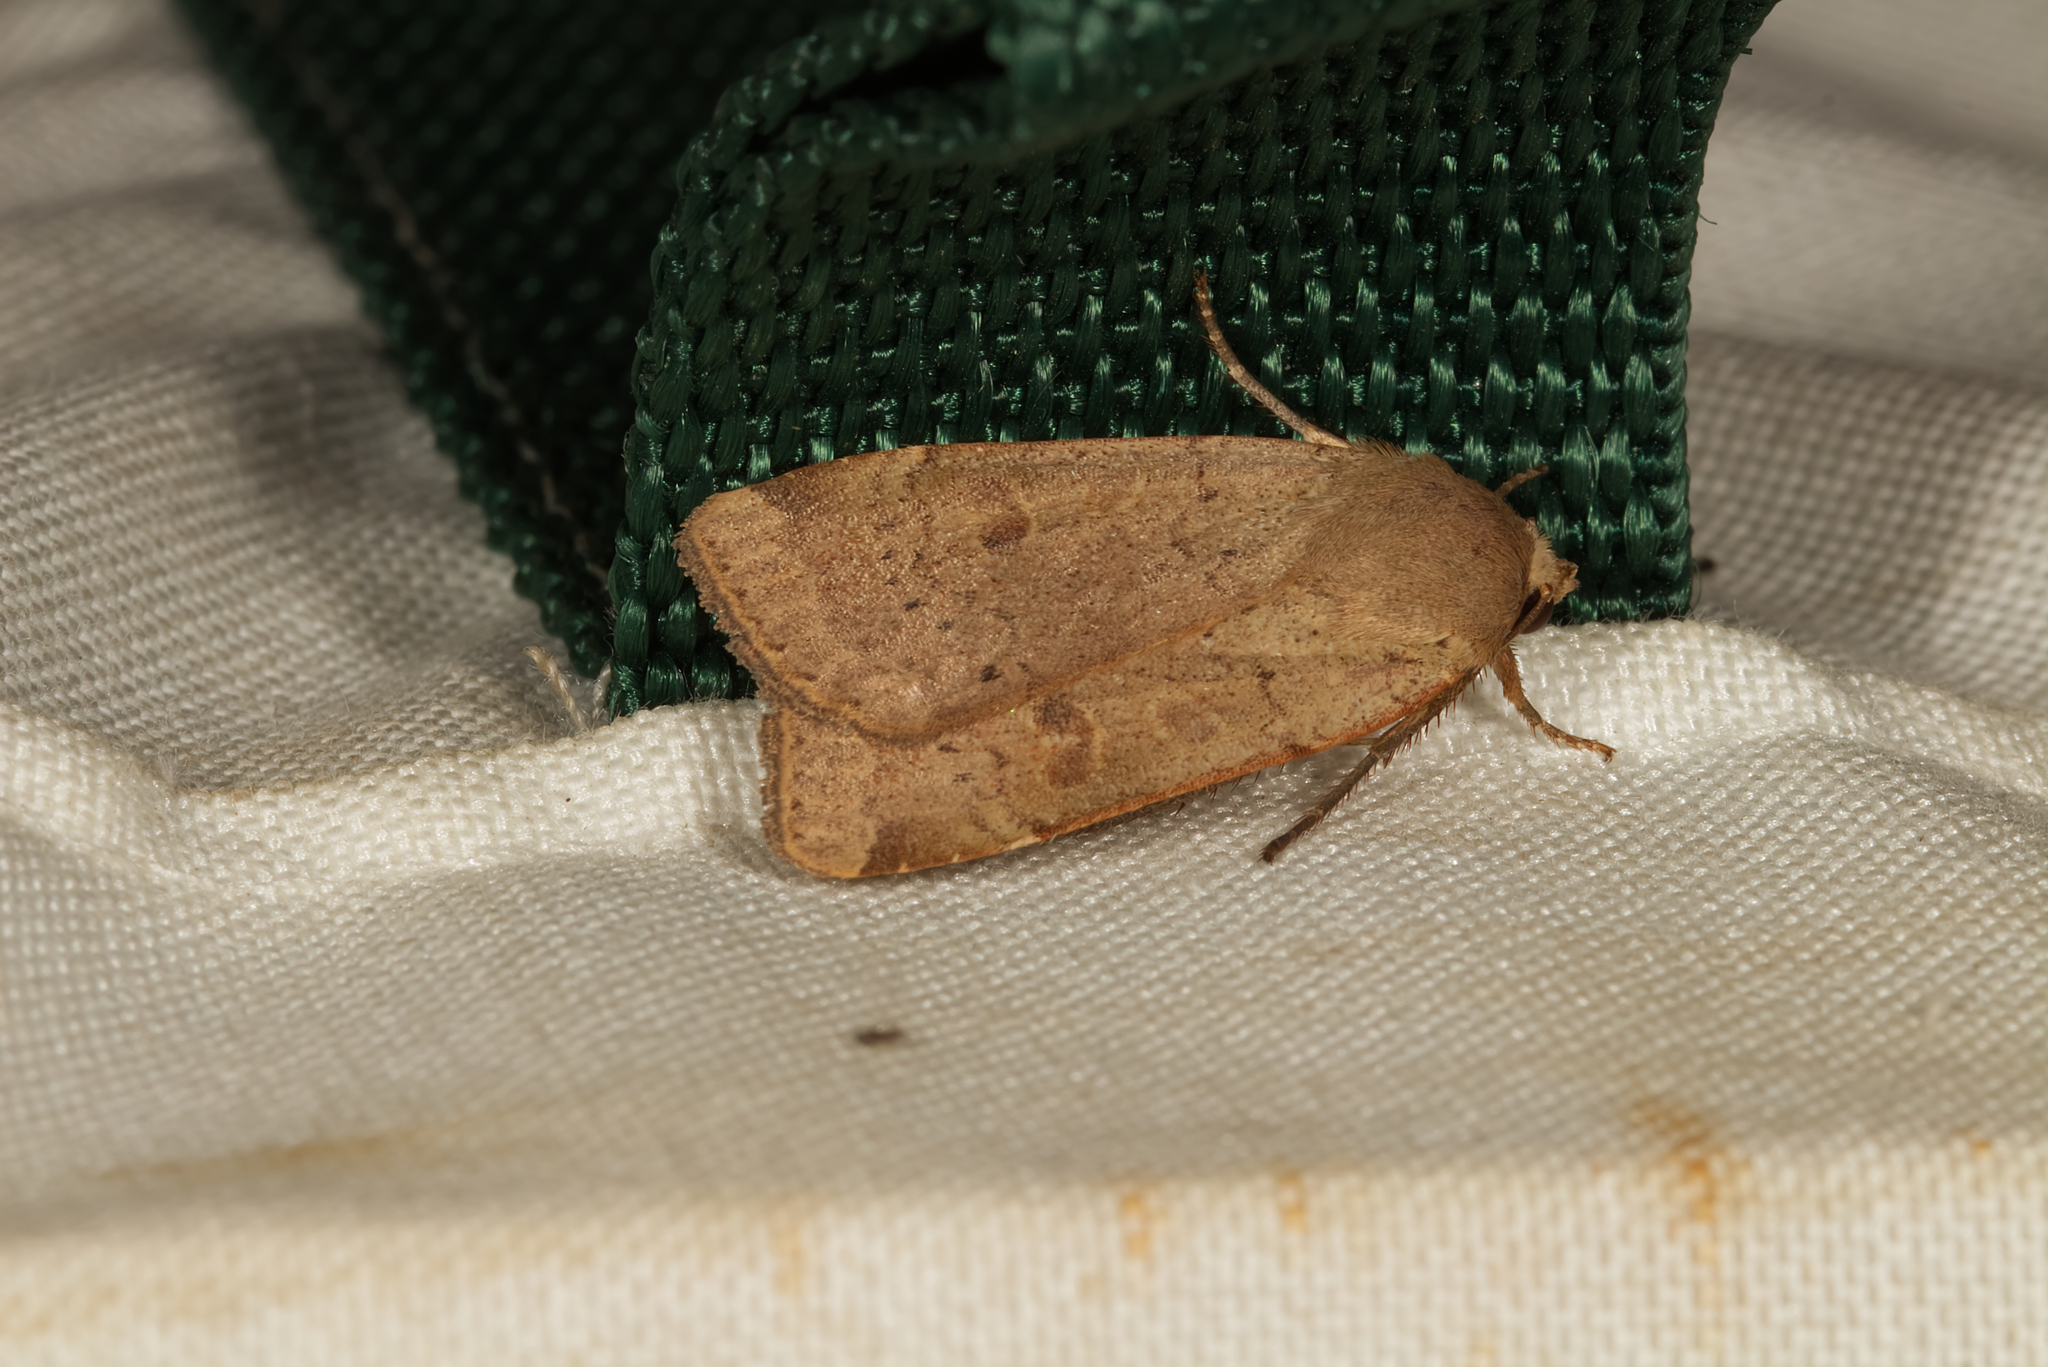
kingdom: Animalia
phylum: Arthropoda
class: Insecta
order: Lepidoptera
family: Noctuidae
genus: Noctua
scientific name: Noctua comes
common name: Lesser yellow underwing
